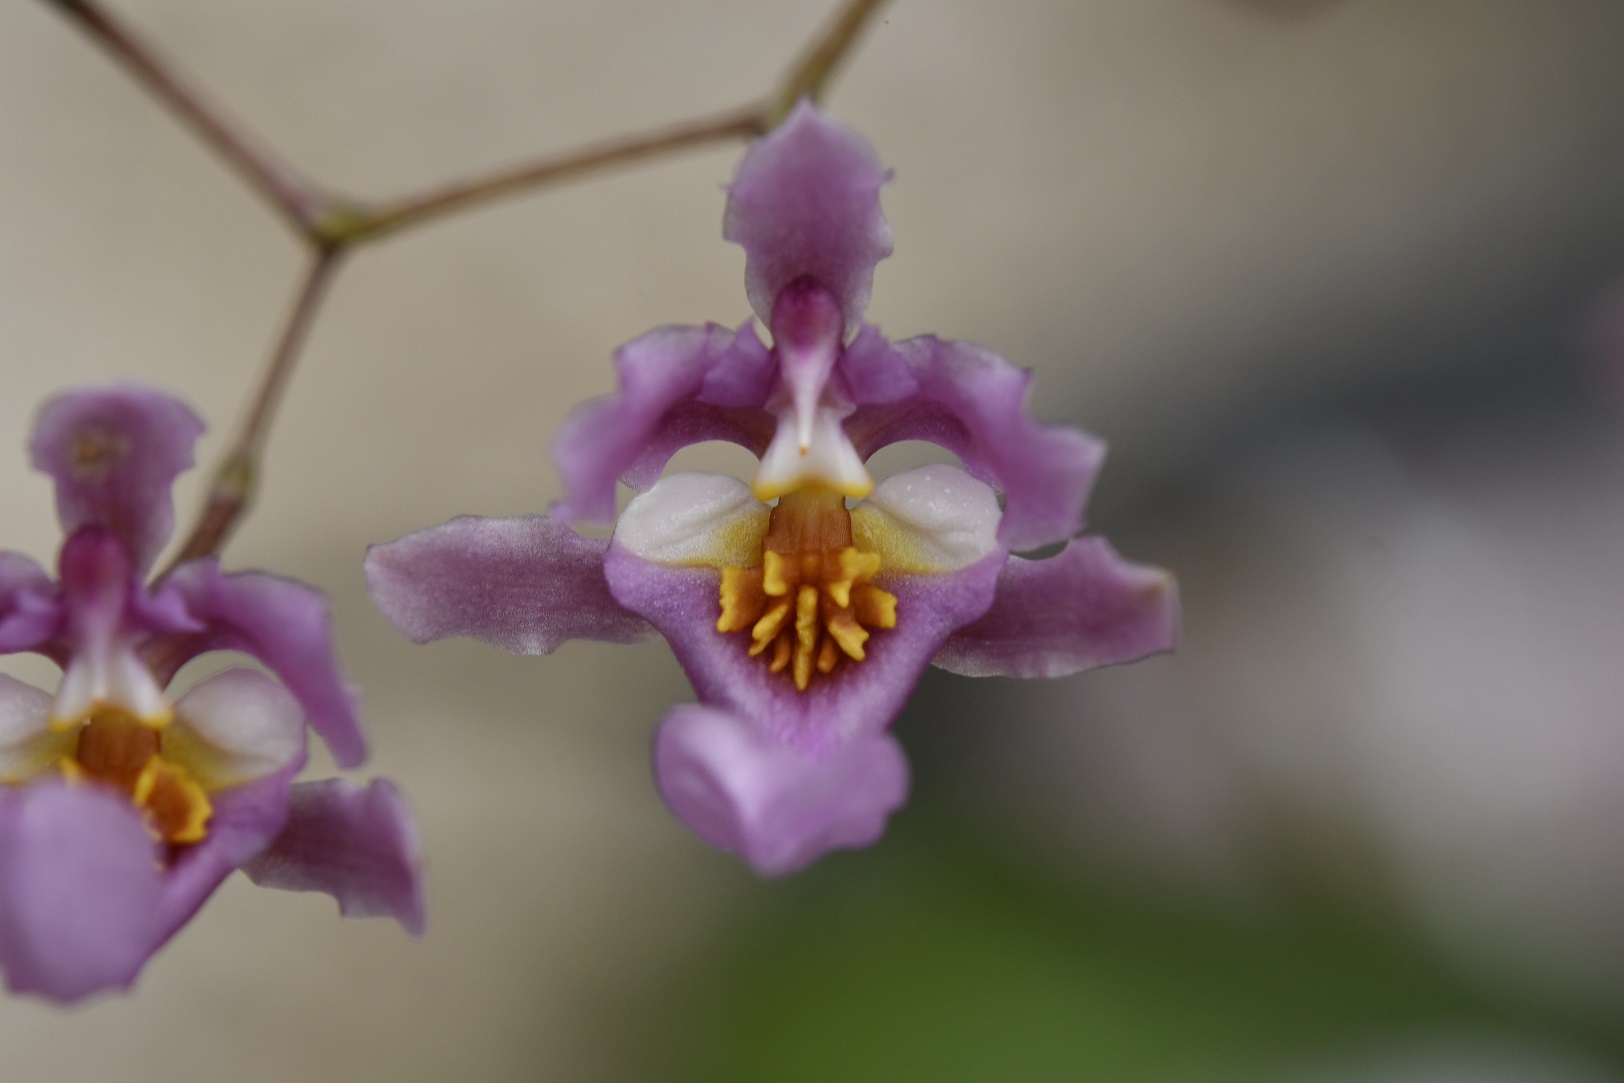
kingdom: Plantae
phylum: Tracheophyta
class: Liliopsida
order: Asparagales
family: Orchidaceae
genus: Oncidium
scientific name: Oncidium sotoanum
